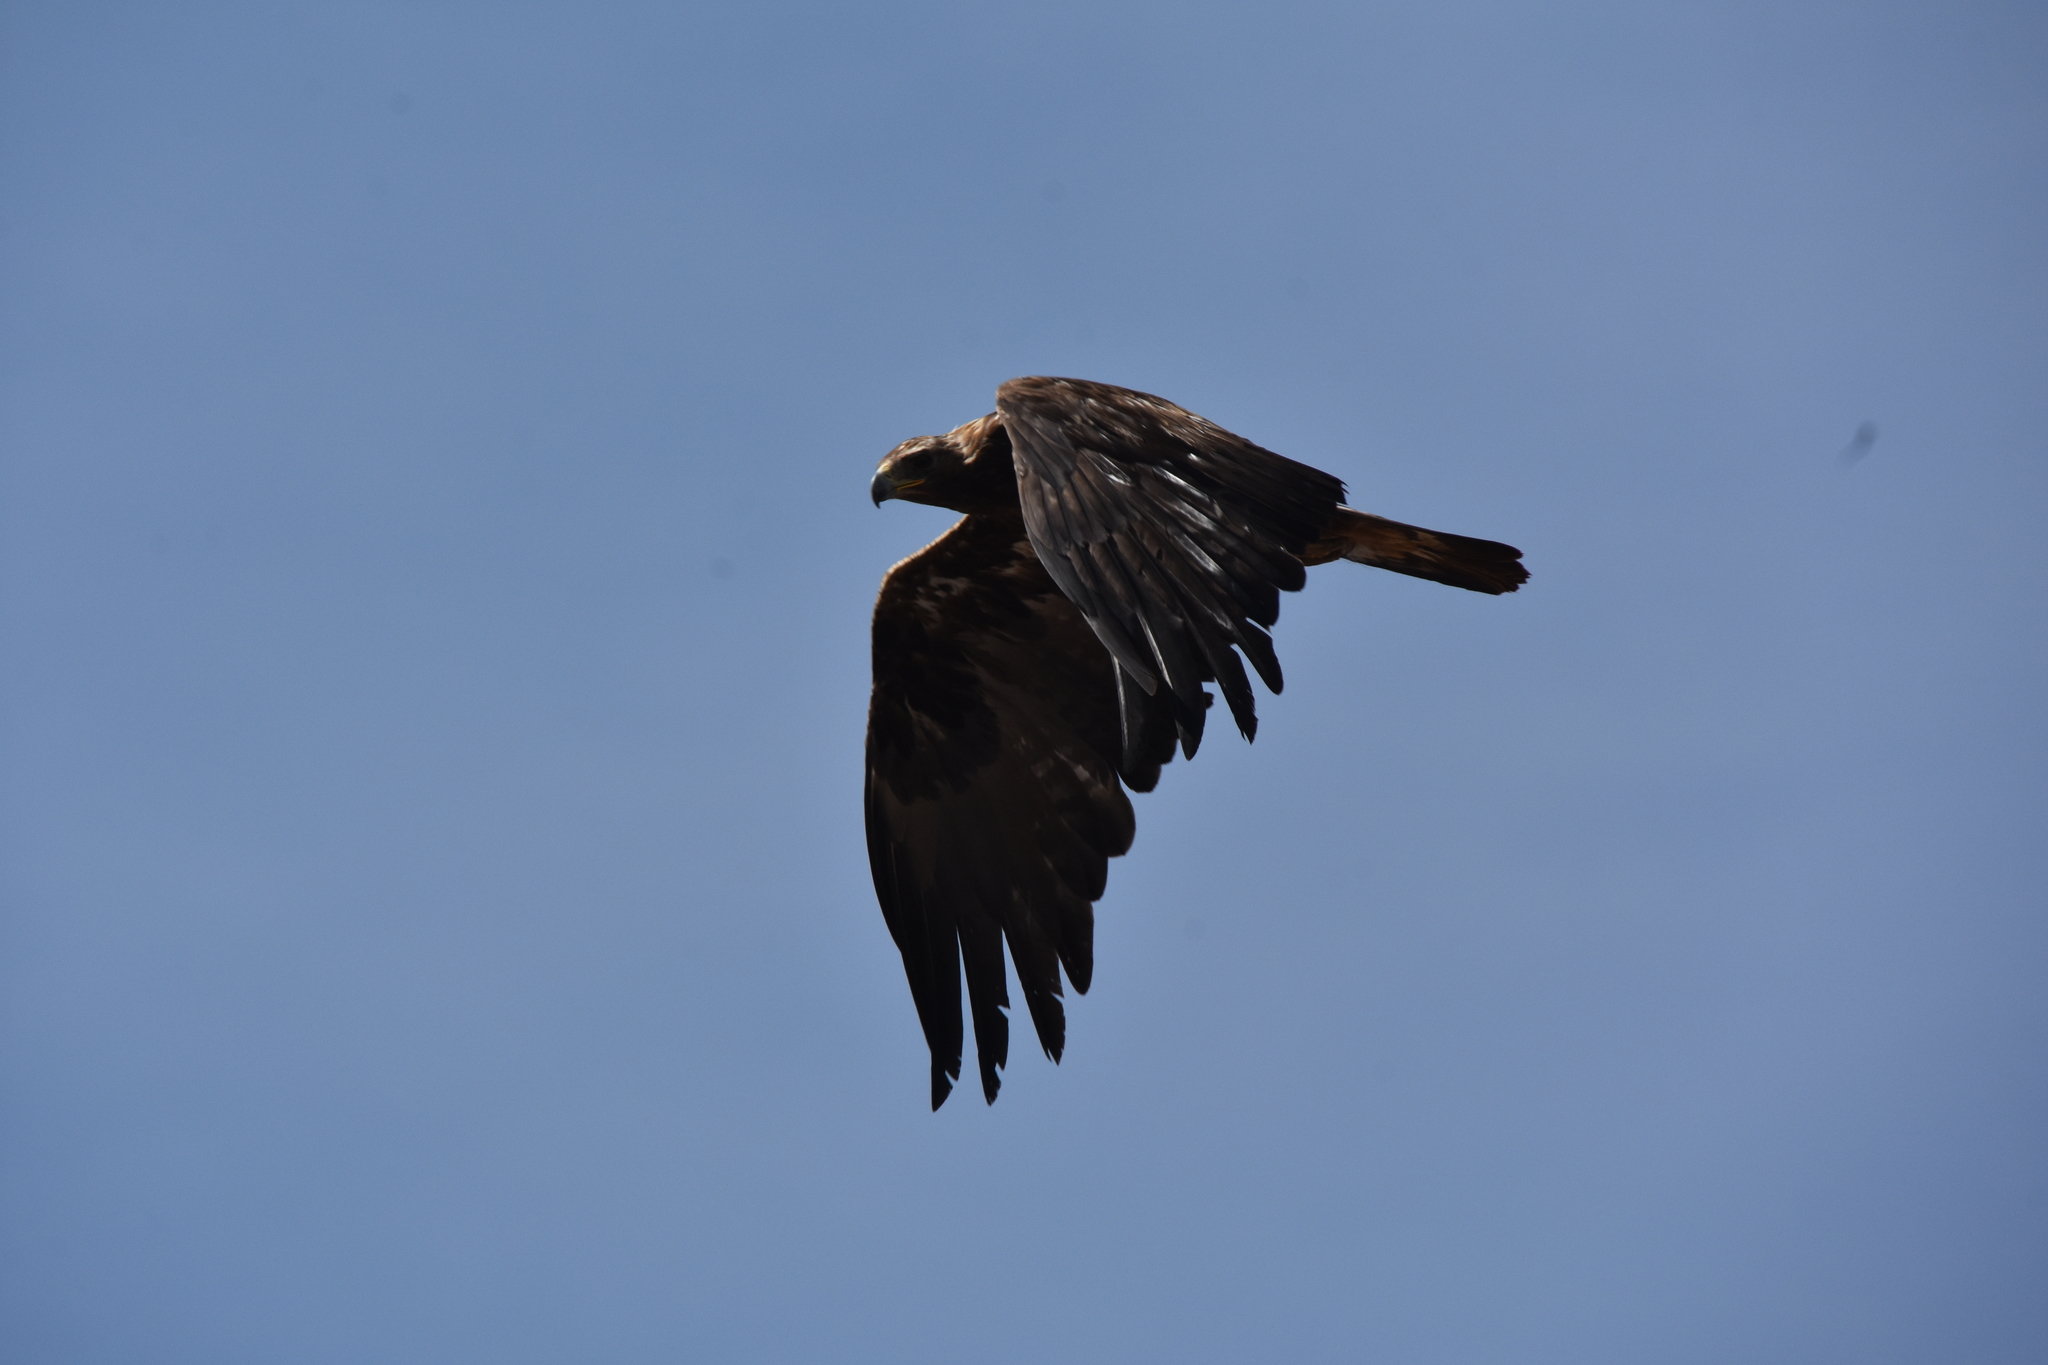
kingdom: Animalia
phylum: Chordata
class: Aves
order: Accipitriformes
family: Accipitridae
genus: Aquila
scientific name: Aquila chrysaetos
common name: Golden eagle
